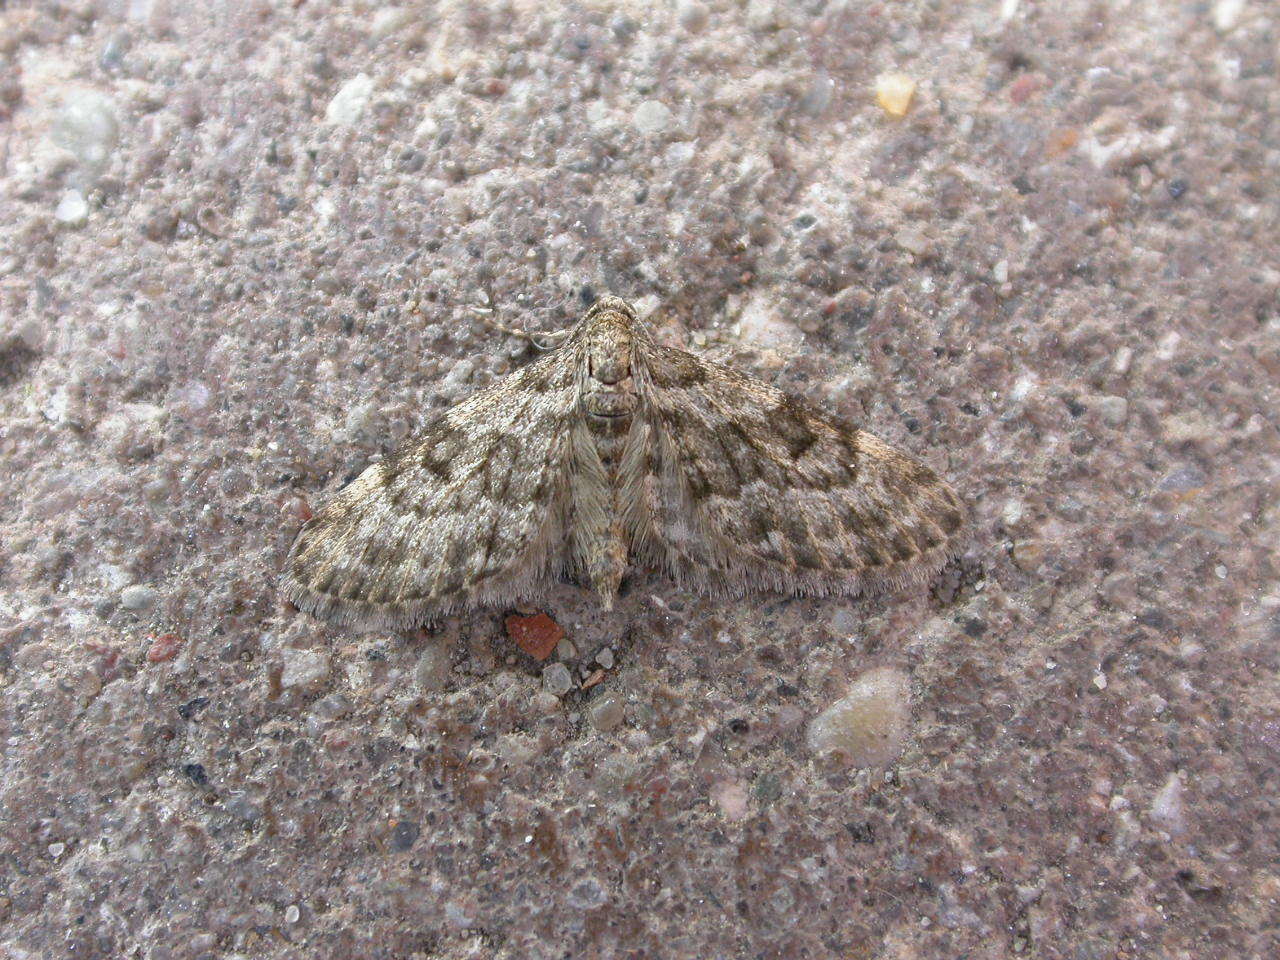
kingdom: Animalia
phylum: Arthropoda
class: Insecta
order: Lepidoptera
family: Geometridae
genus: Eupithecia
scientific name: Eupithecia tantillaria
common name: Dwarf pug
